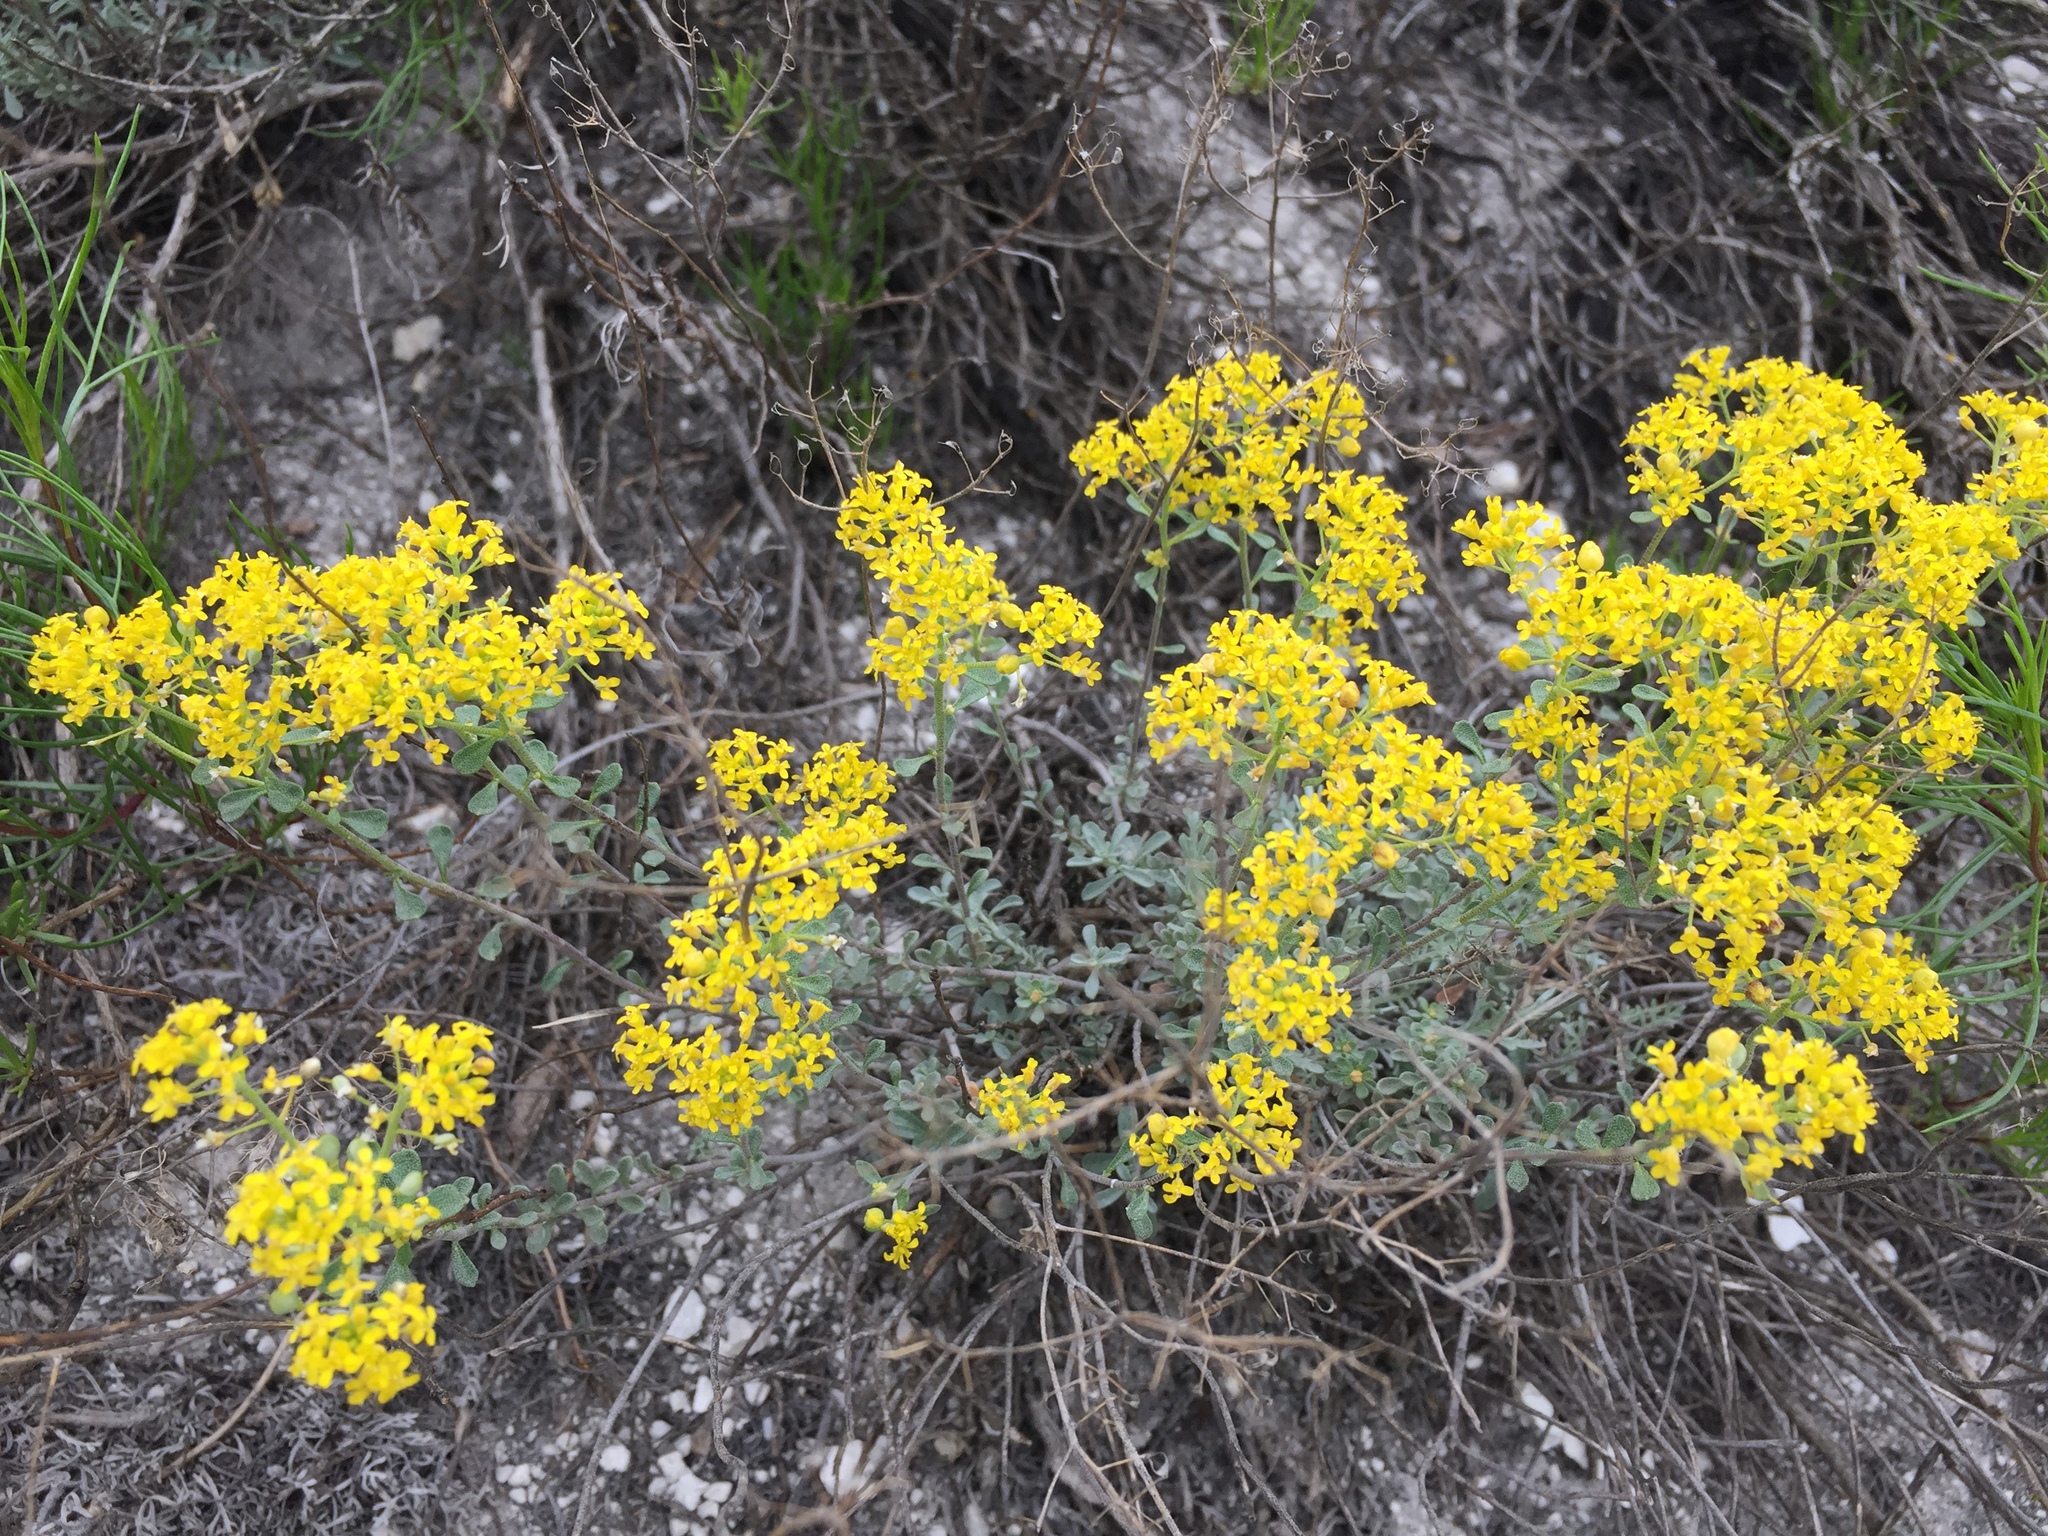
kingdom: Plantae
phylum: Tracheophyta
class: Magnoliopsida
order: Brassicales
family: Brassicaceae
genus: Odontarrhena
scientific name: Odontarrhena tortuosa
